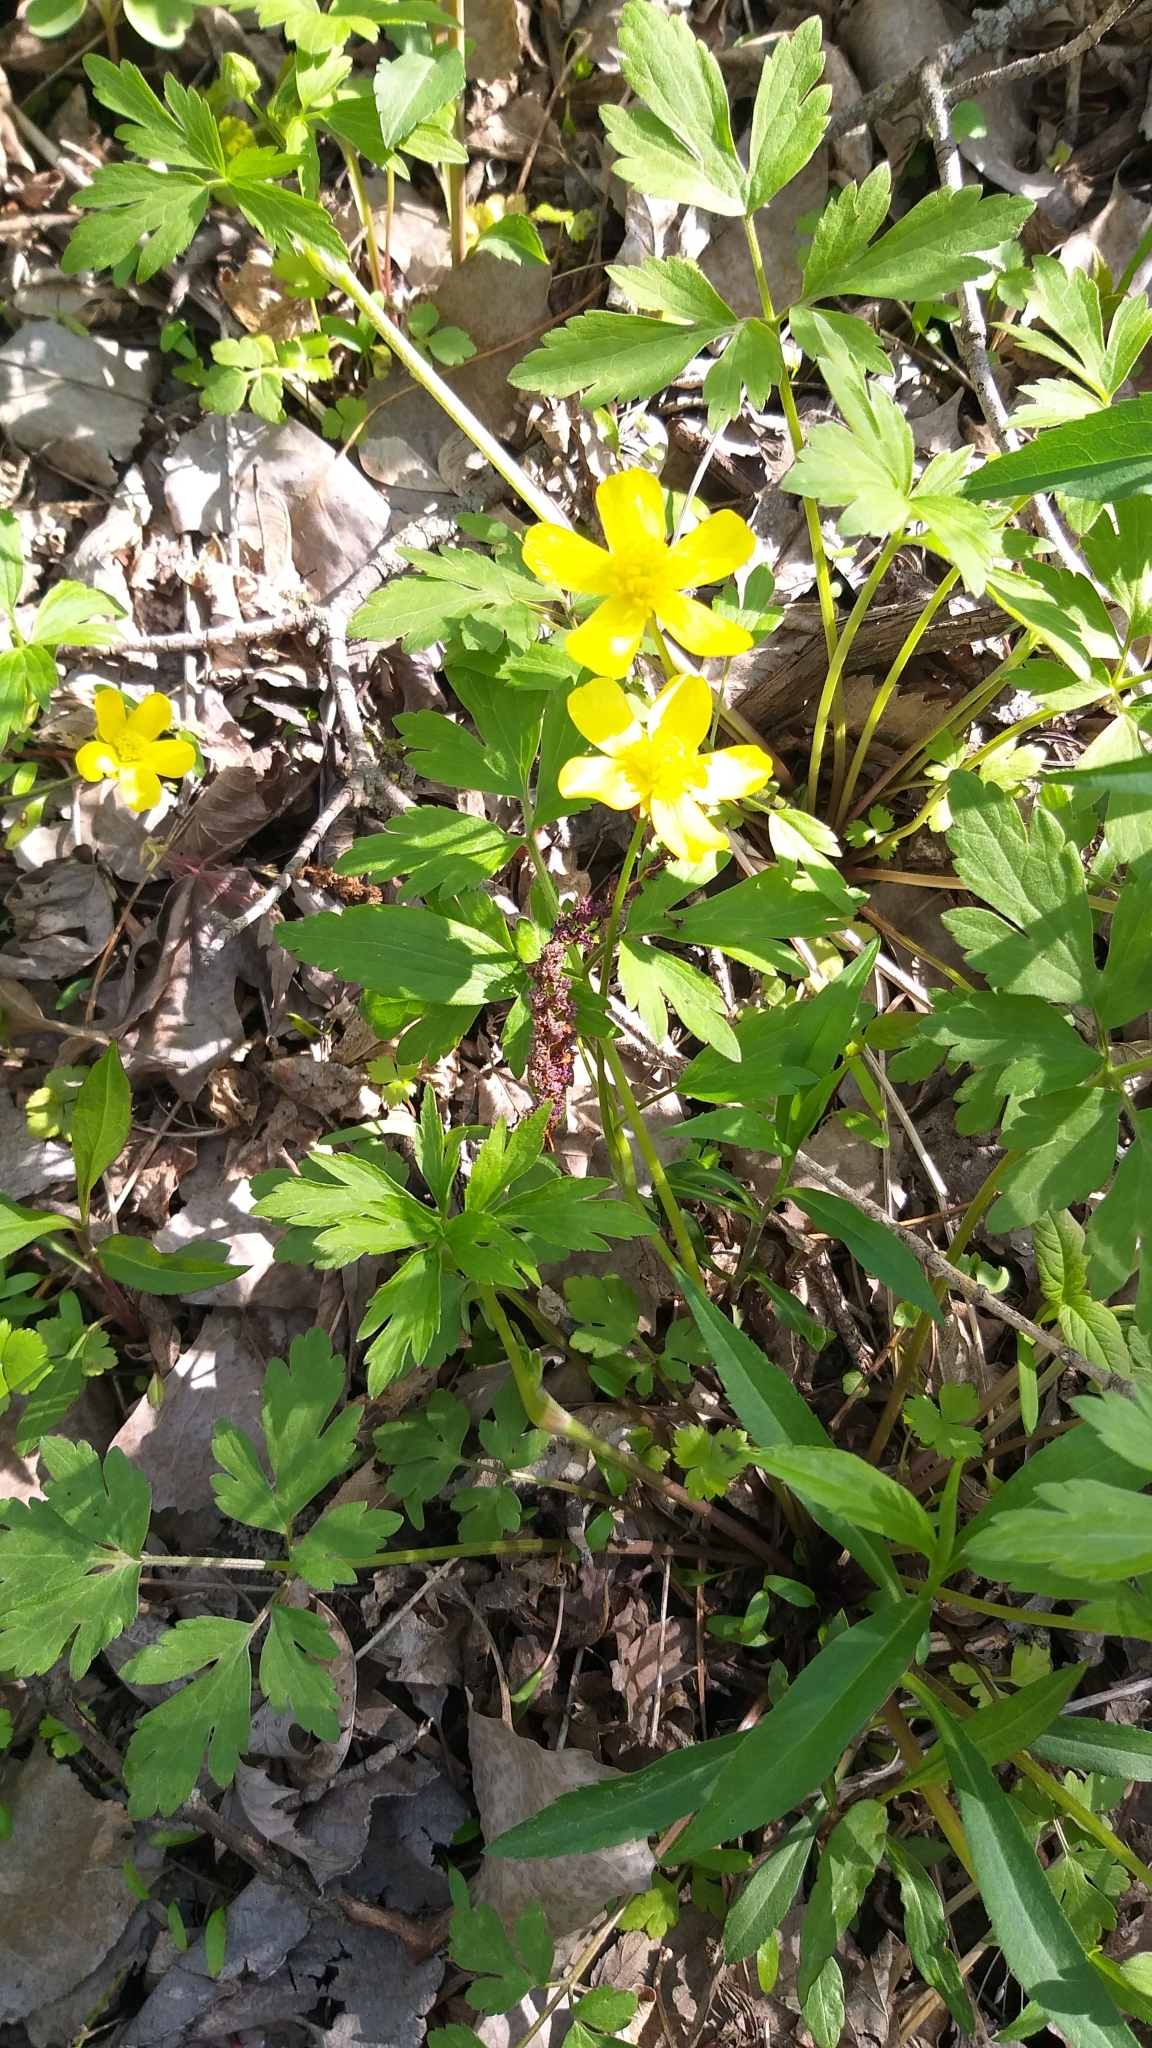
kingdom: Plantae
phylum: Tracheophyta
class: Magnoliopsida
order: Ranunculales
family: Ranunculaceae
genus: Ranunculus
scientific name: Ranunculus hispidus
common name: Bristly buttercup
